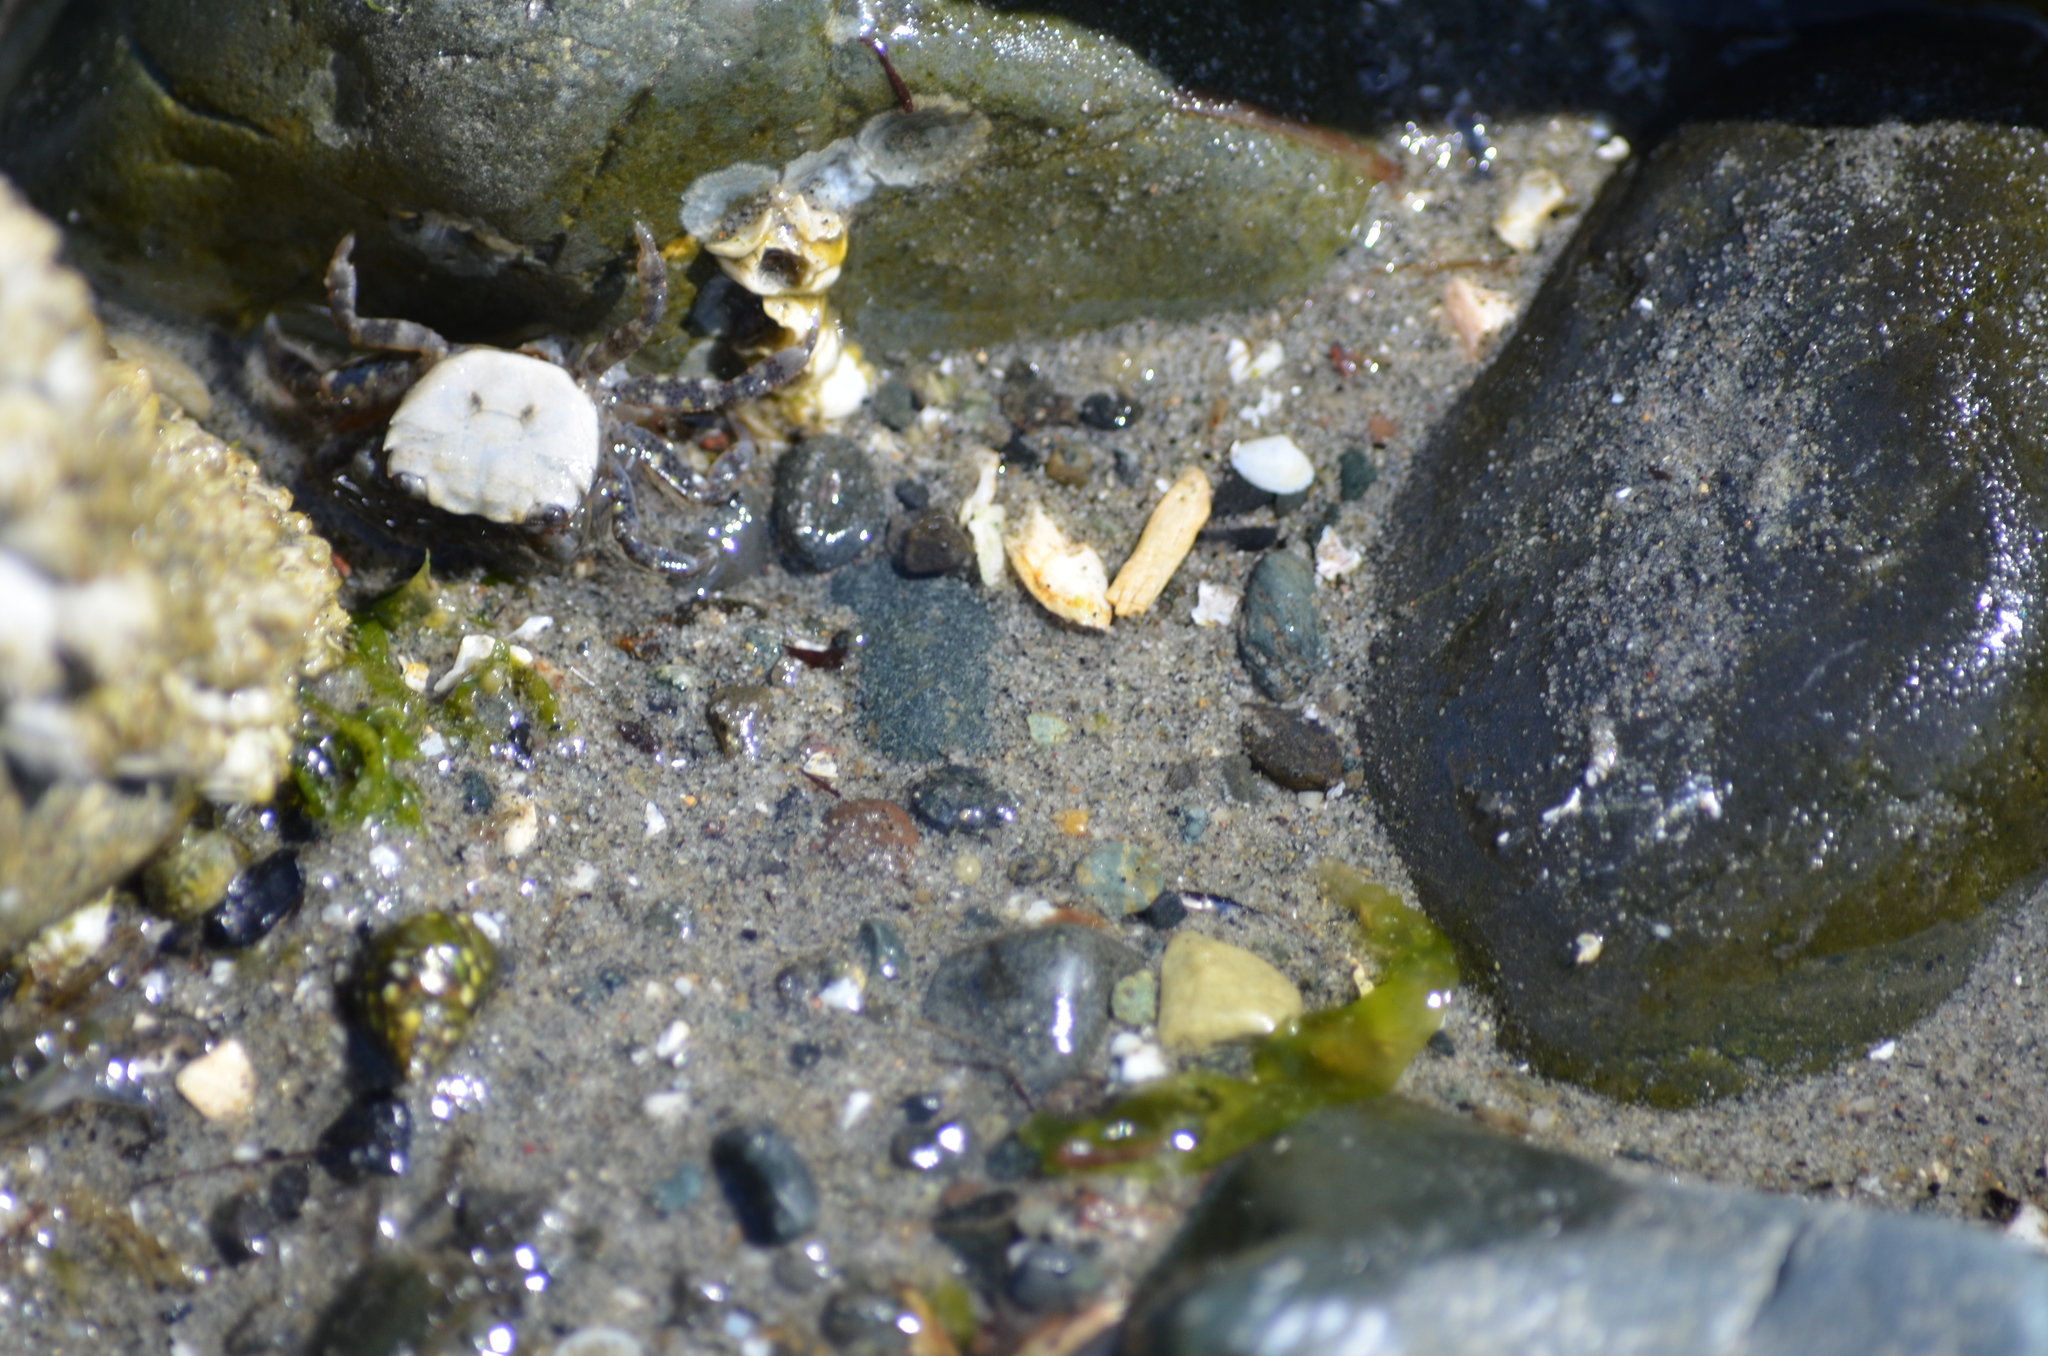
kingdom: Animalia
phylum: Arthropoda
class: Malacostraca
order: Decapoda
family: Varunidae
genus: Hemigrapsus
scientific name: Hemigrapsus oregonensis
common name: Yellow shore crab
